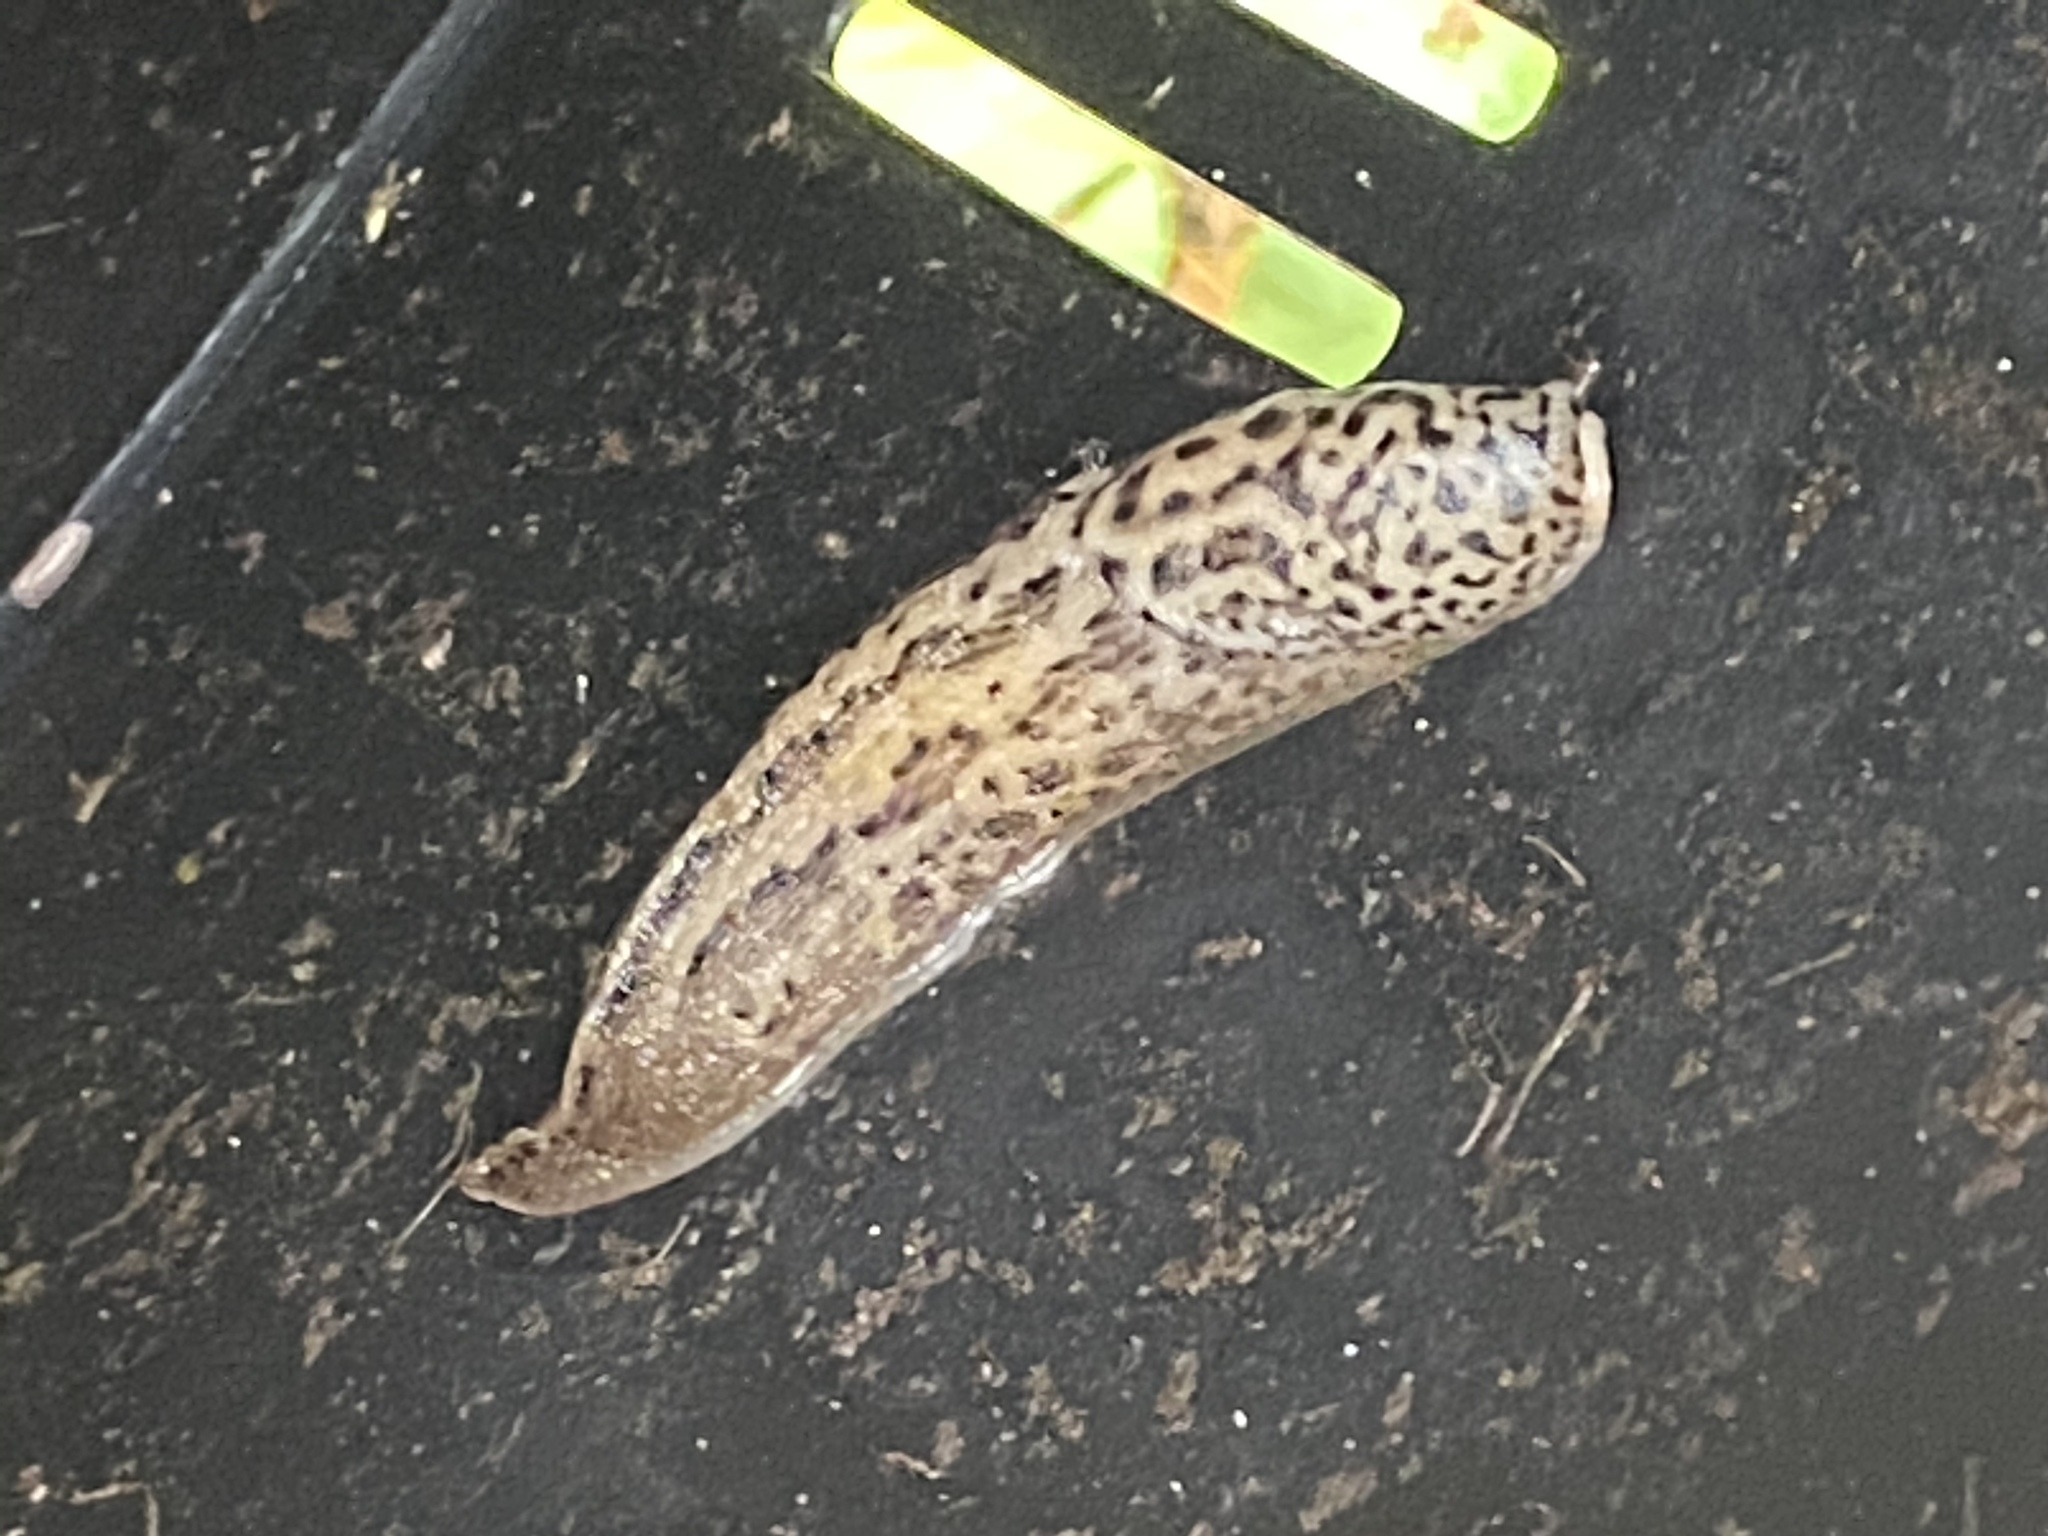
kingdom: Animalia
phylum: Mollusca
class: Gastropoda
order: Stylommatophora
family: Limacidae
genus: Limax
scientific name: Limax maximus
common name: Great grey slug
